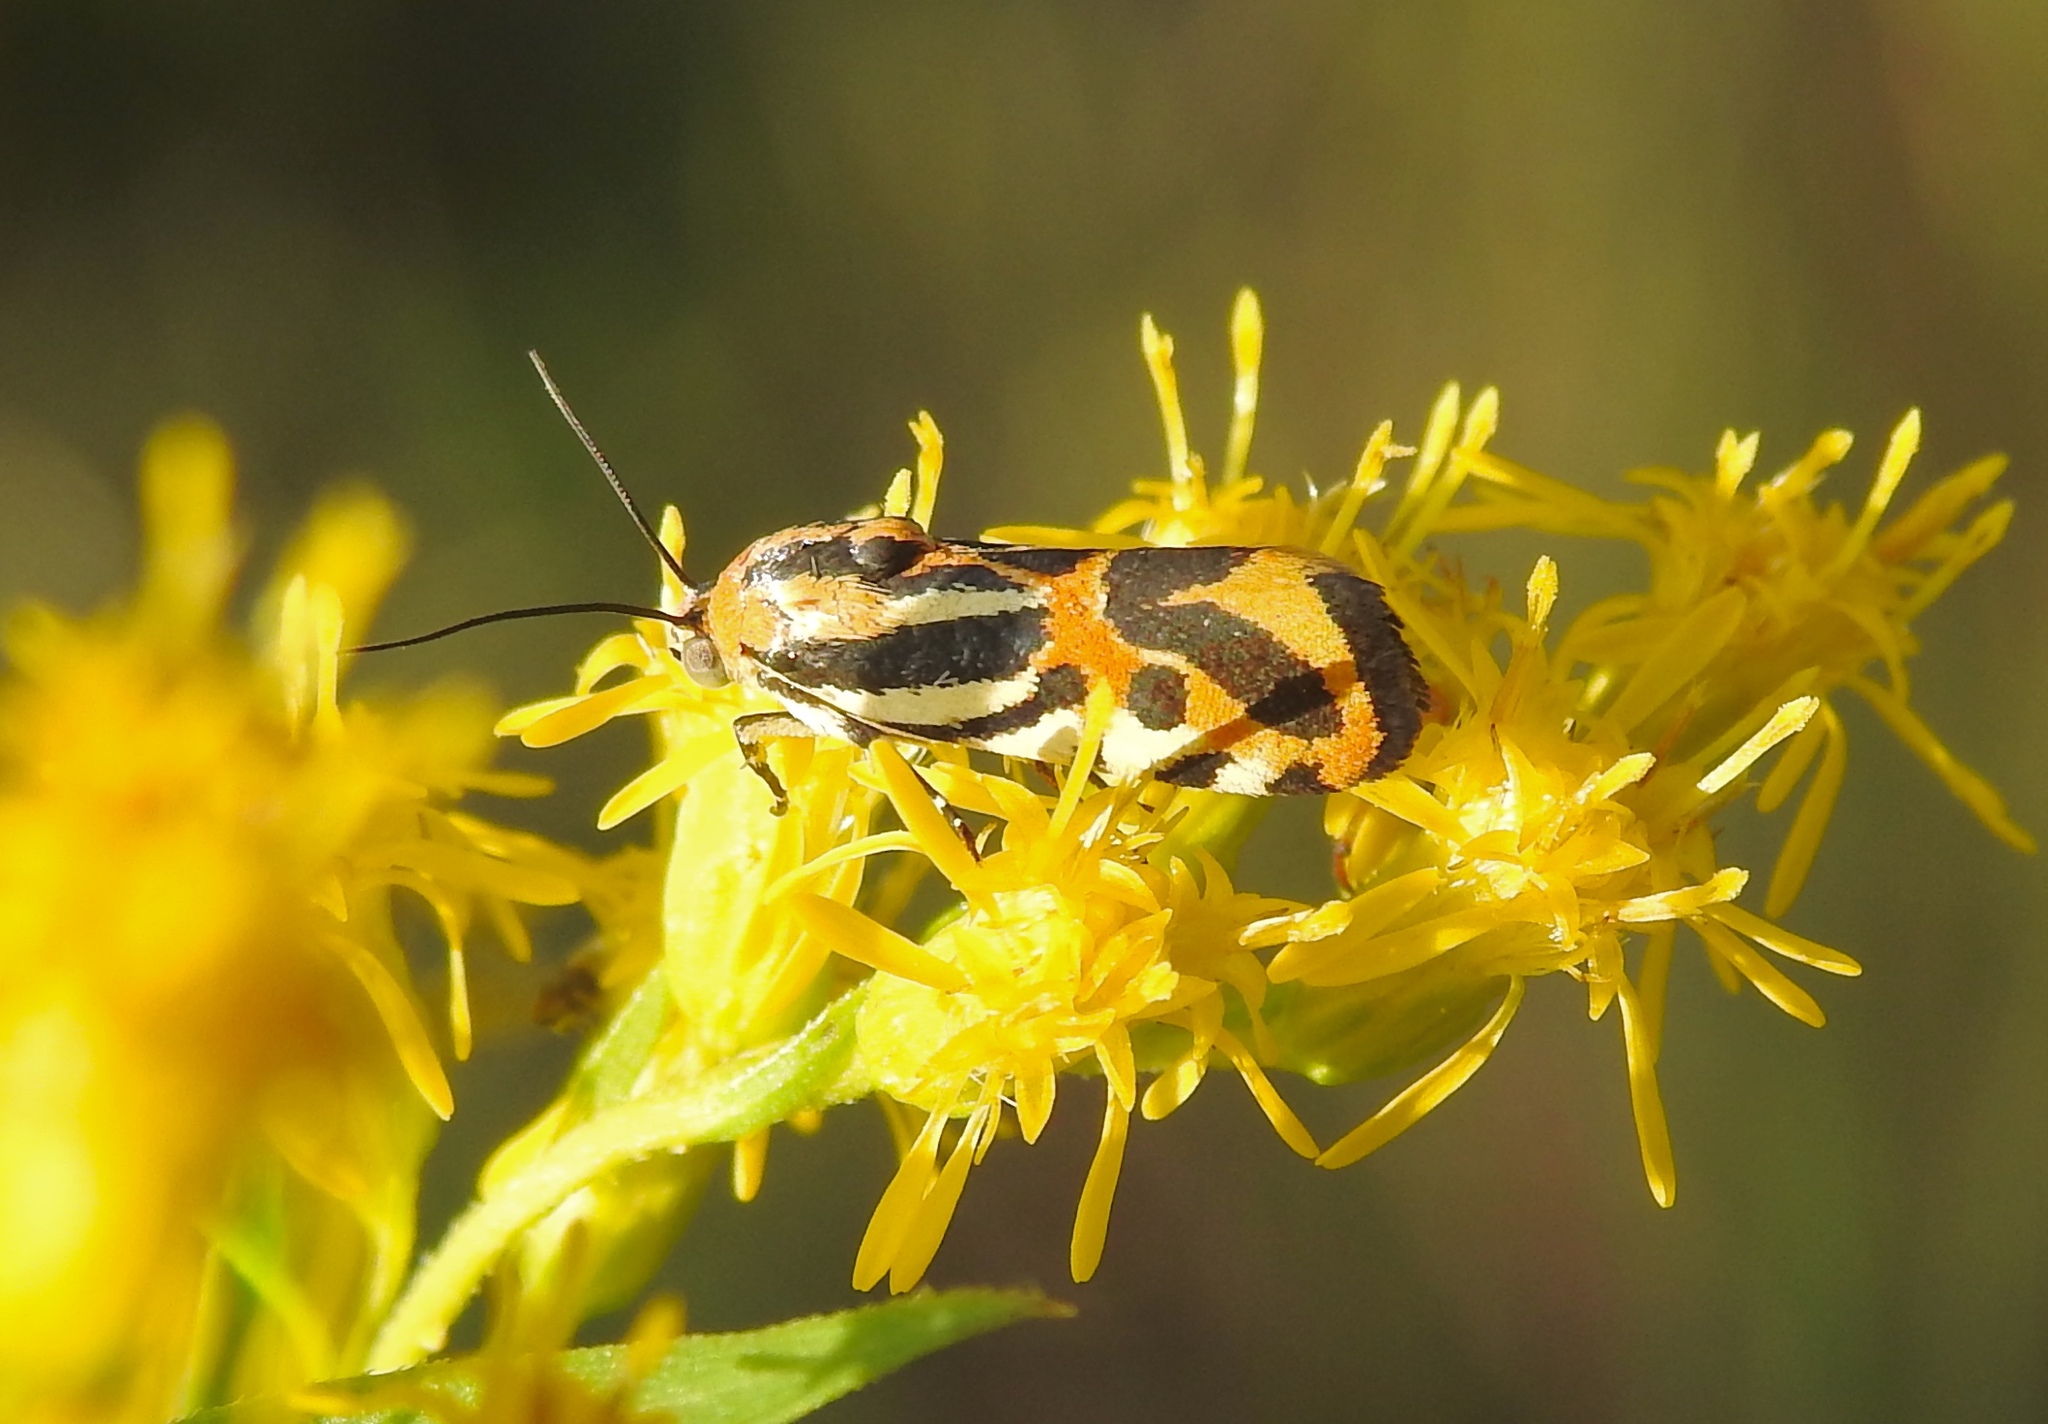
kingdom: Animalia
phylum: Arthropoda
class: Insecta
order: Lepidoptera
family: Noctuidae
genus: Acontia
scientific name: Acontia onagrus
